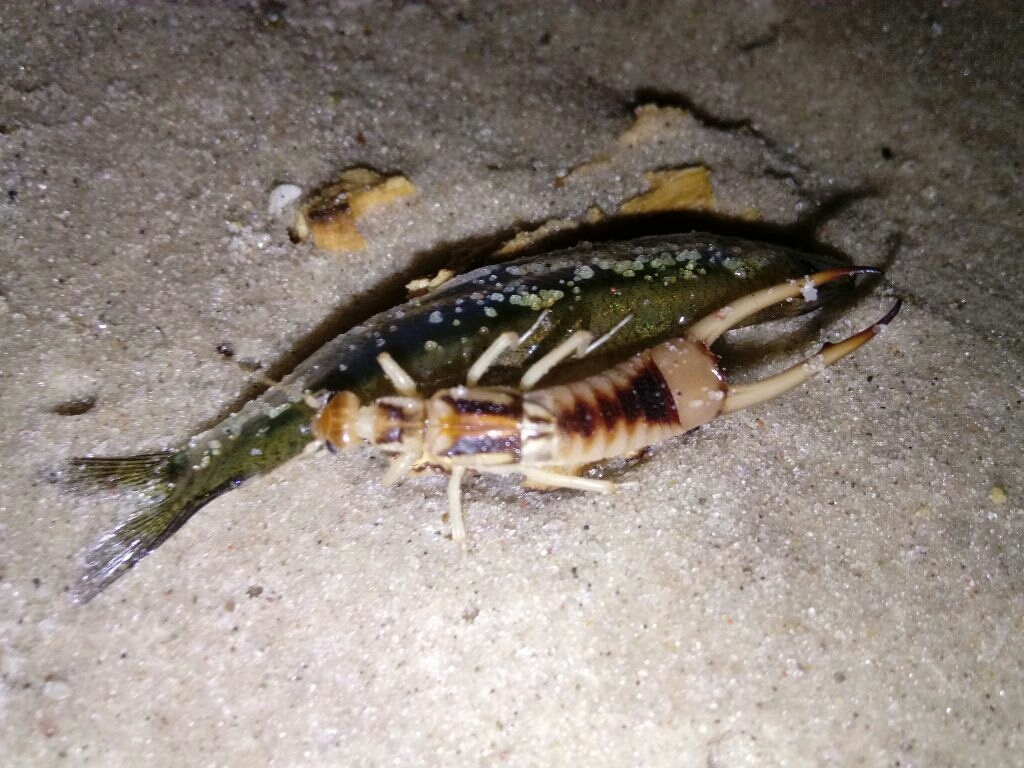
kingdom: Animalia
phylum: Arthropoda
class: Insecta
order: Dermaptera
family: Labiduridae
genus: Labidura
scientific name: Labidura riparia
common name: Striped earwig
